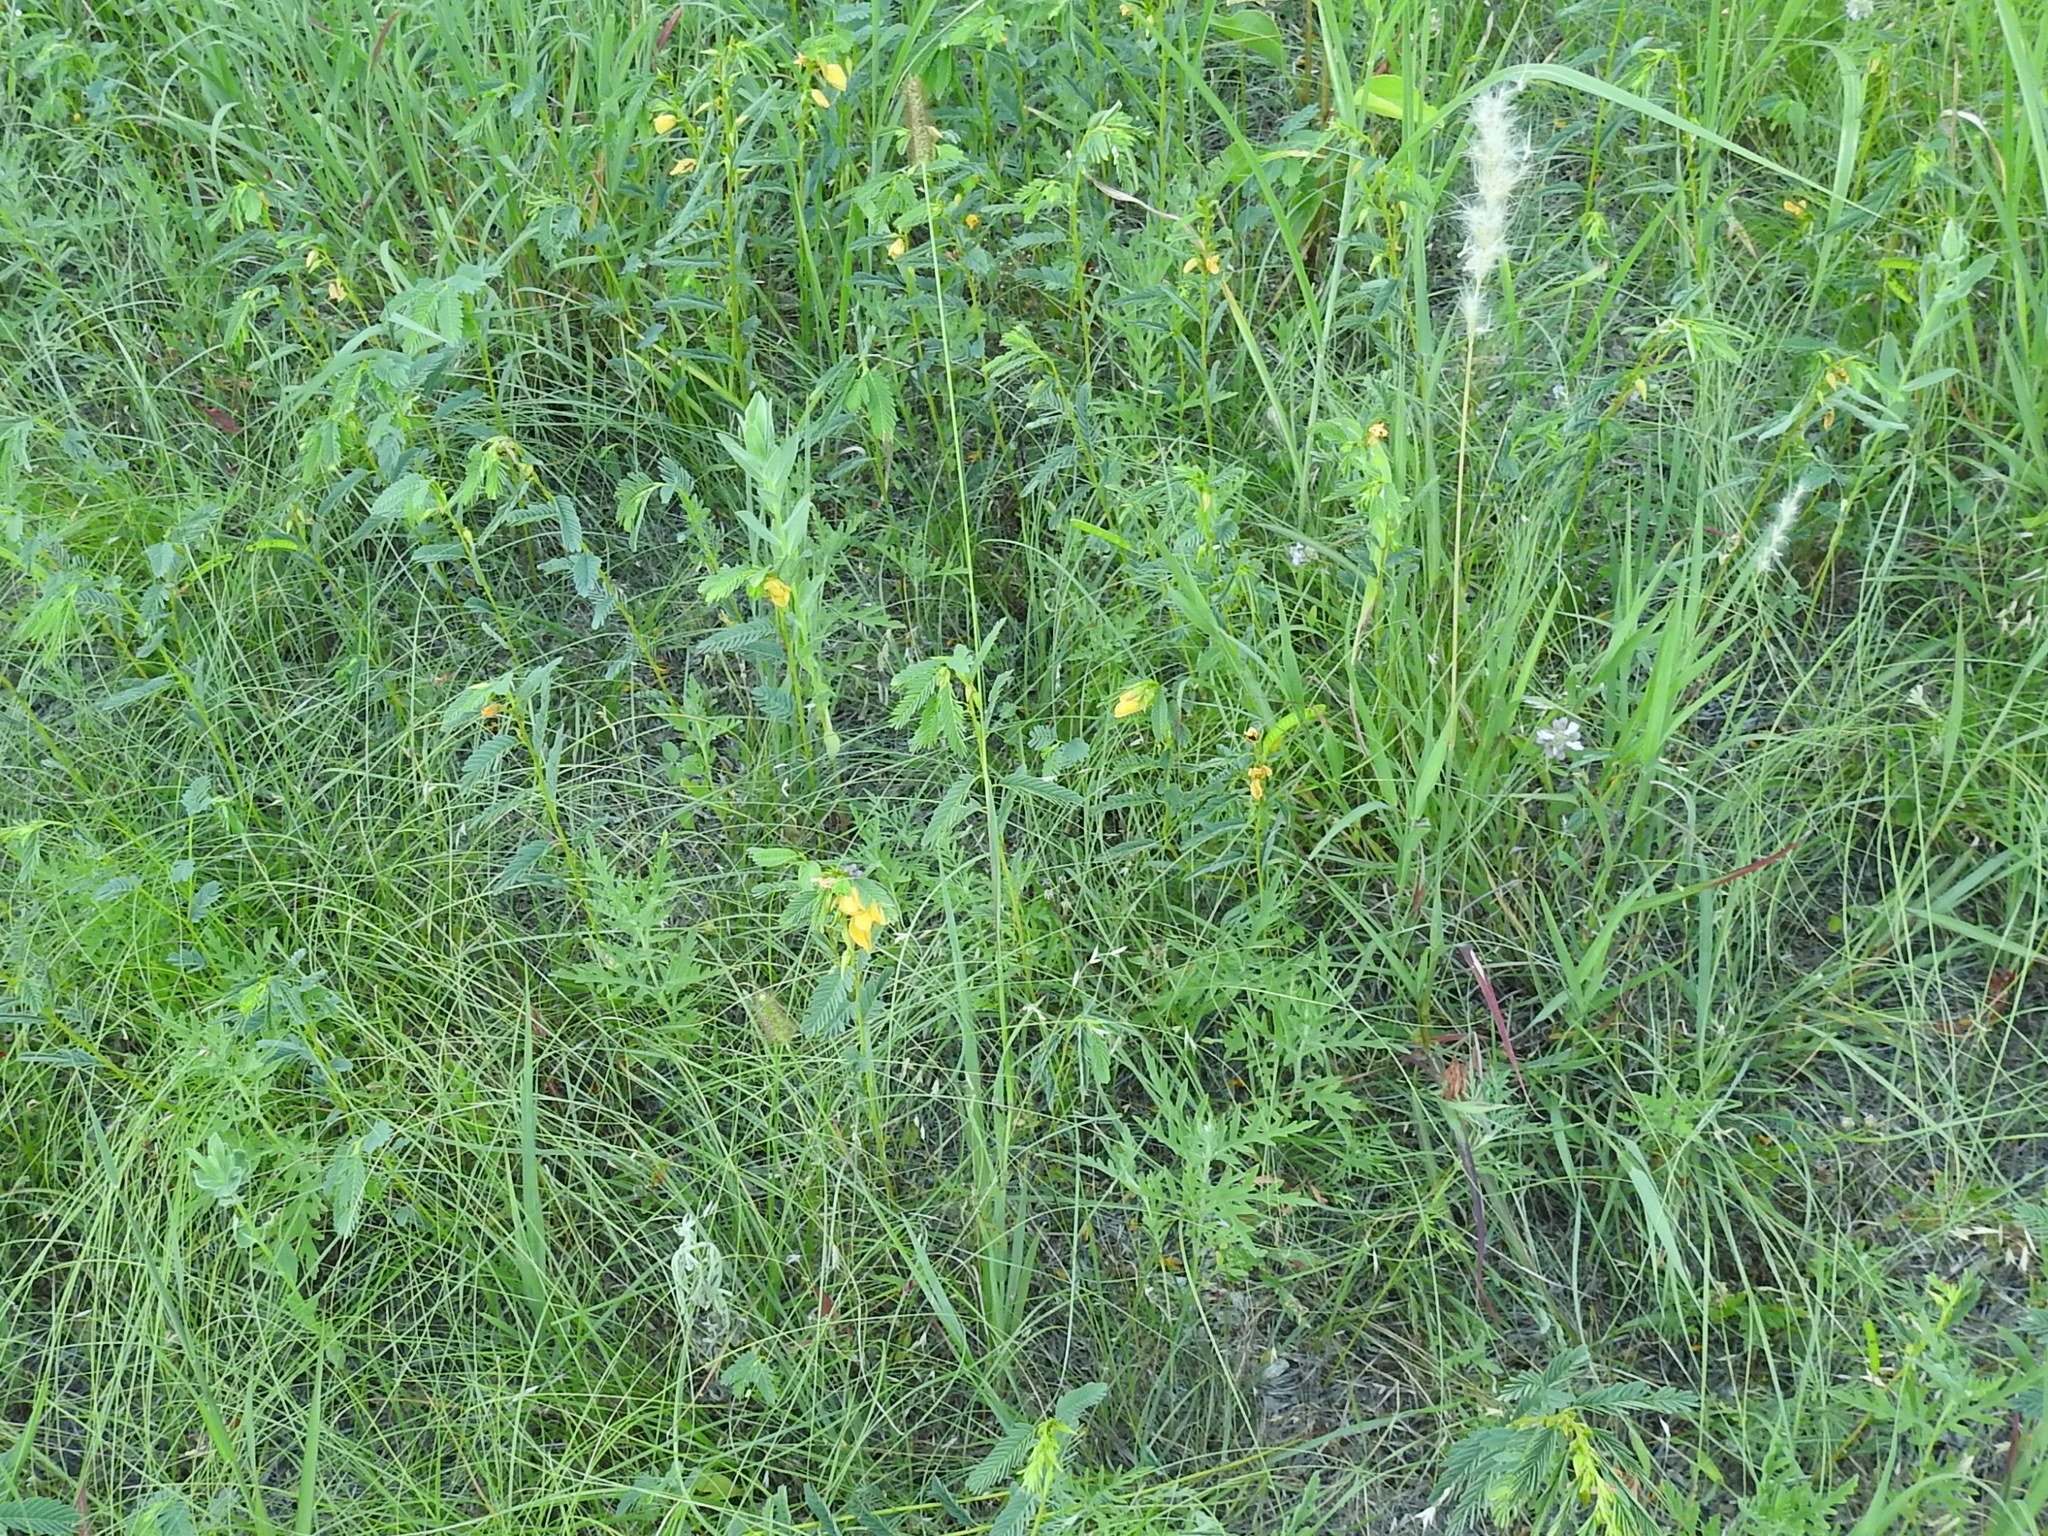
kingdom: Plantae
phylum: Tracheophyta
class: Liliopsida
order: Poales
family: Poaceae
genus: Setaria
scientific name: Setaria parviflora
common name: Knotroot bristle-grass
